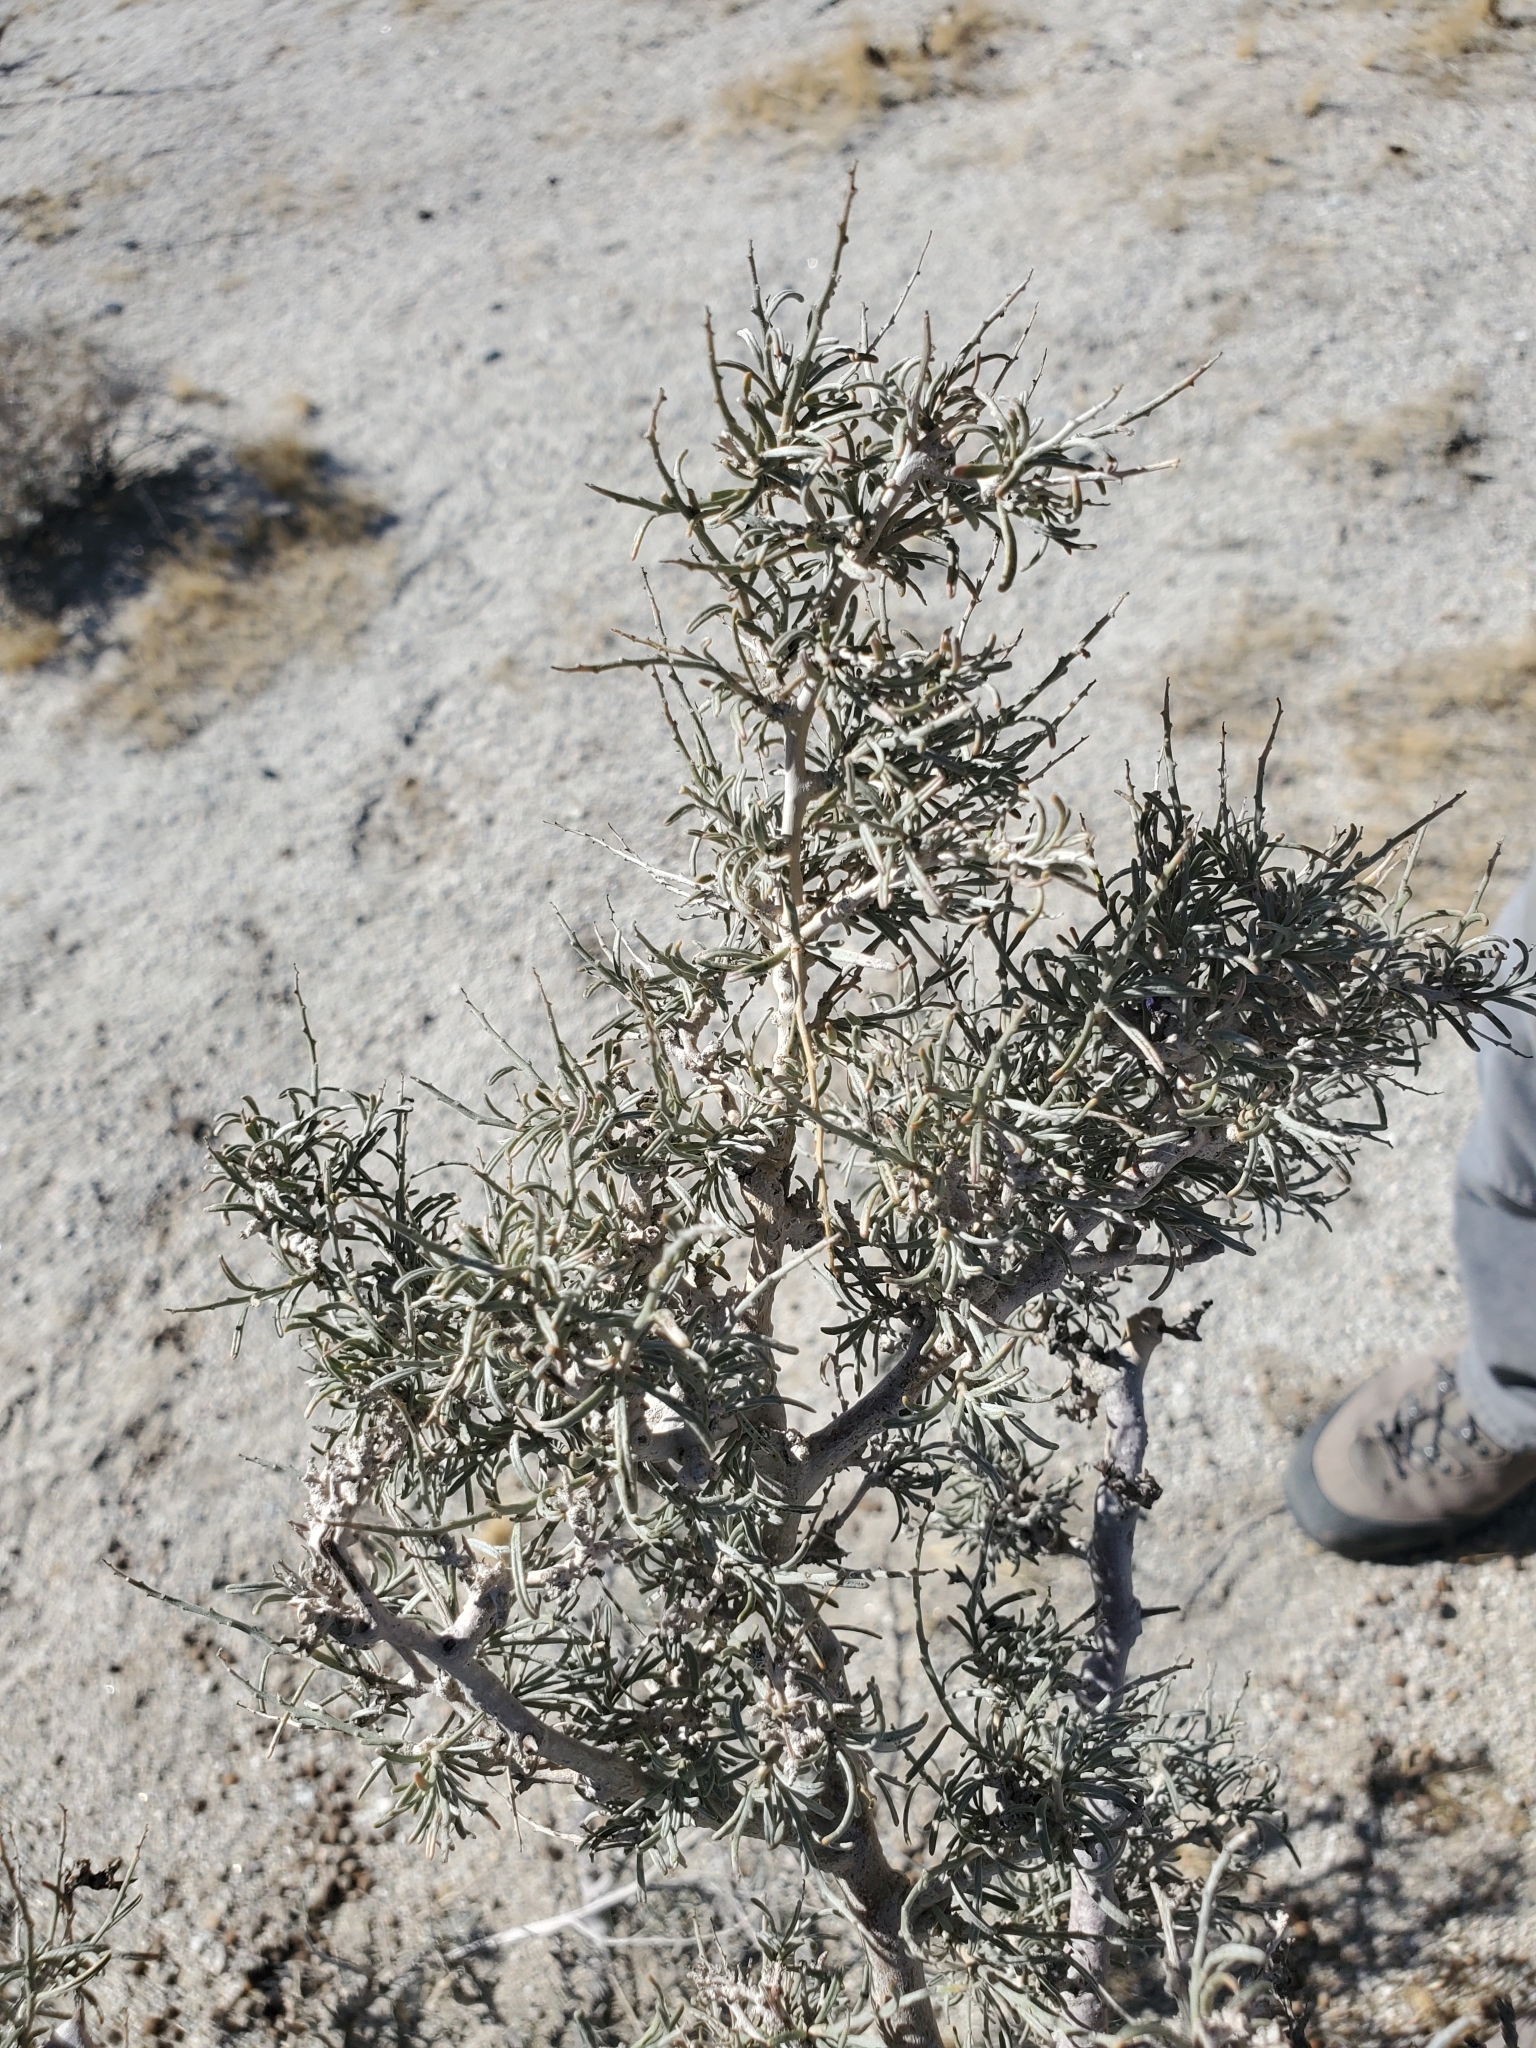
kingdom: Plantae
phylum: Tracheophyta
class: Magnoliopsida
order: Fabales
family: Fabaceae
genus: Psorothamnus
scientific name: Psorothamnus schottii
